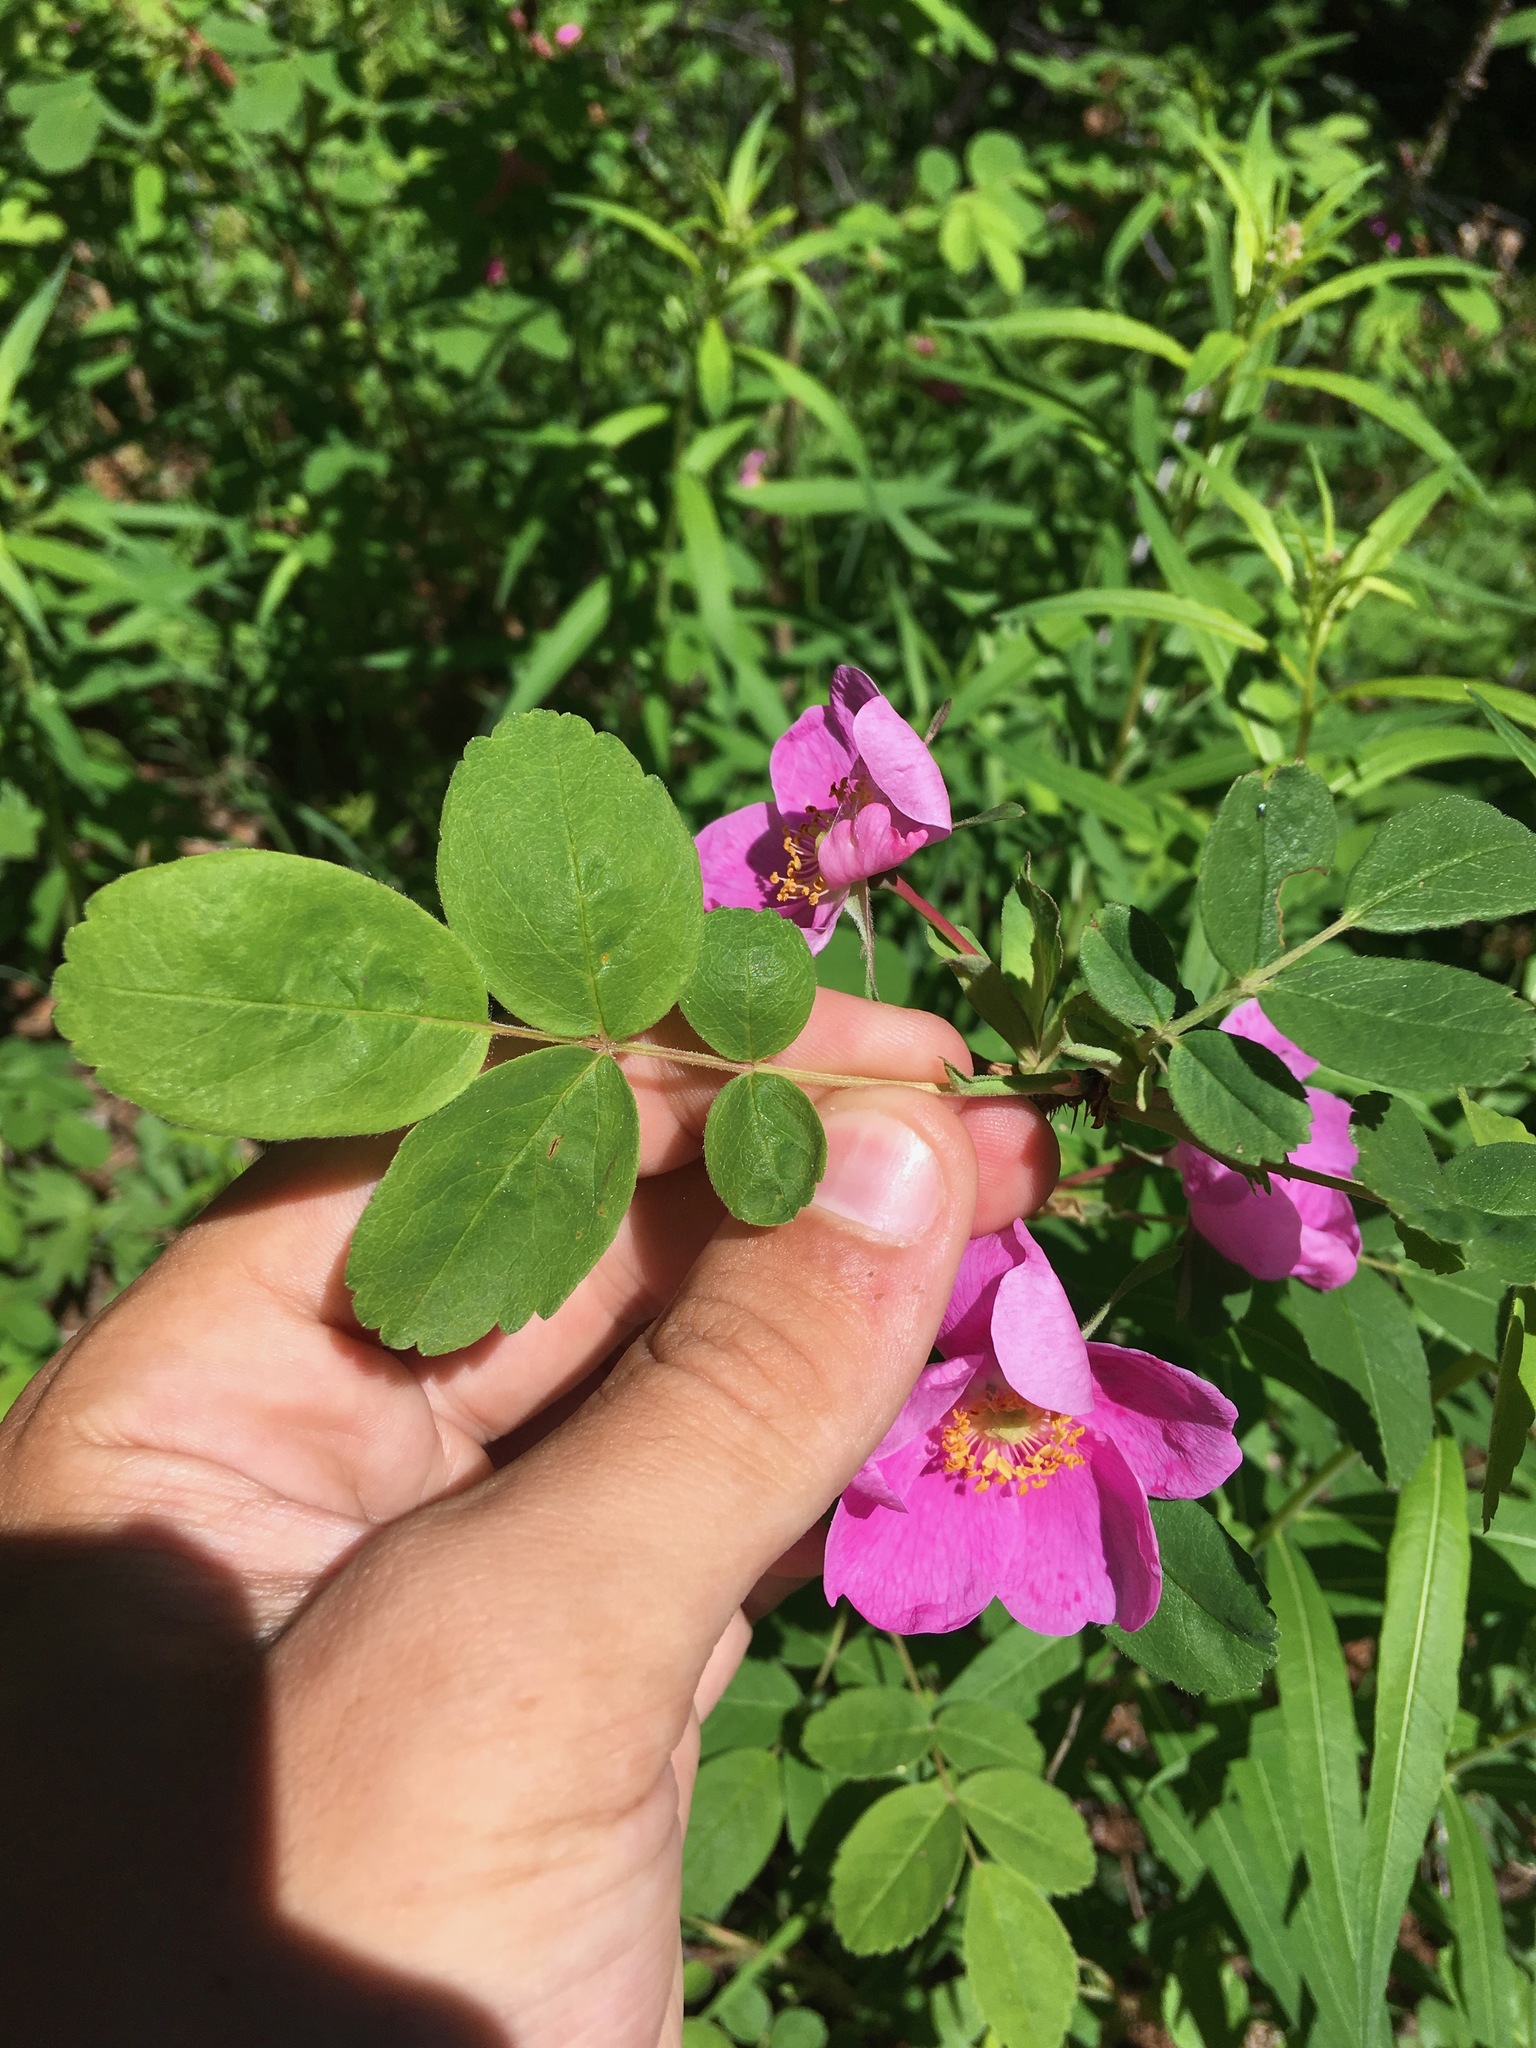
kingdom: Plantae
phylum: Tracheophyta
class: Magnoliopsida
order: Rosales
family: Rosaceae
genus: Rosa
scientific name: Rosa acicularis
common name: Prickly rose
